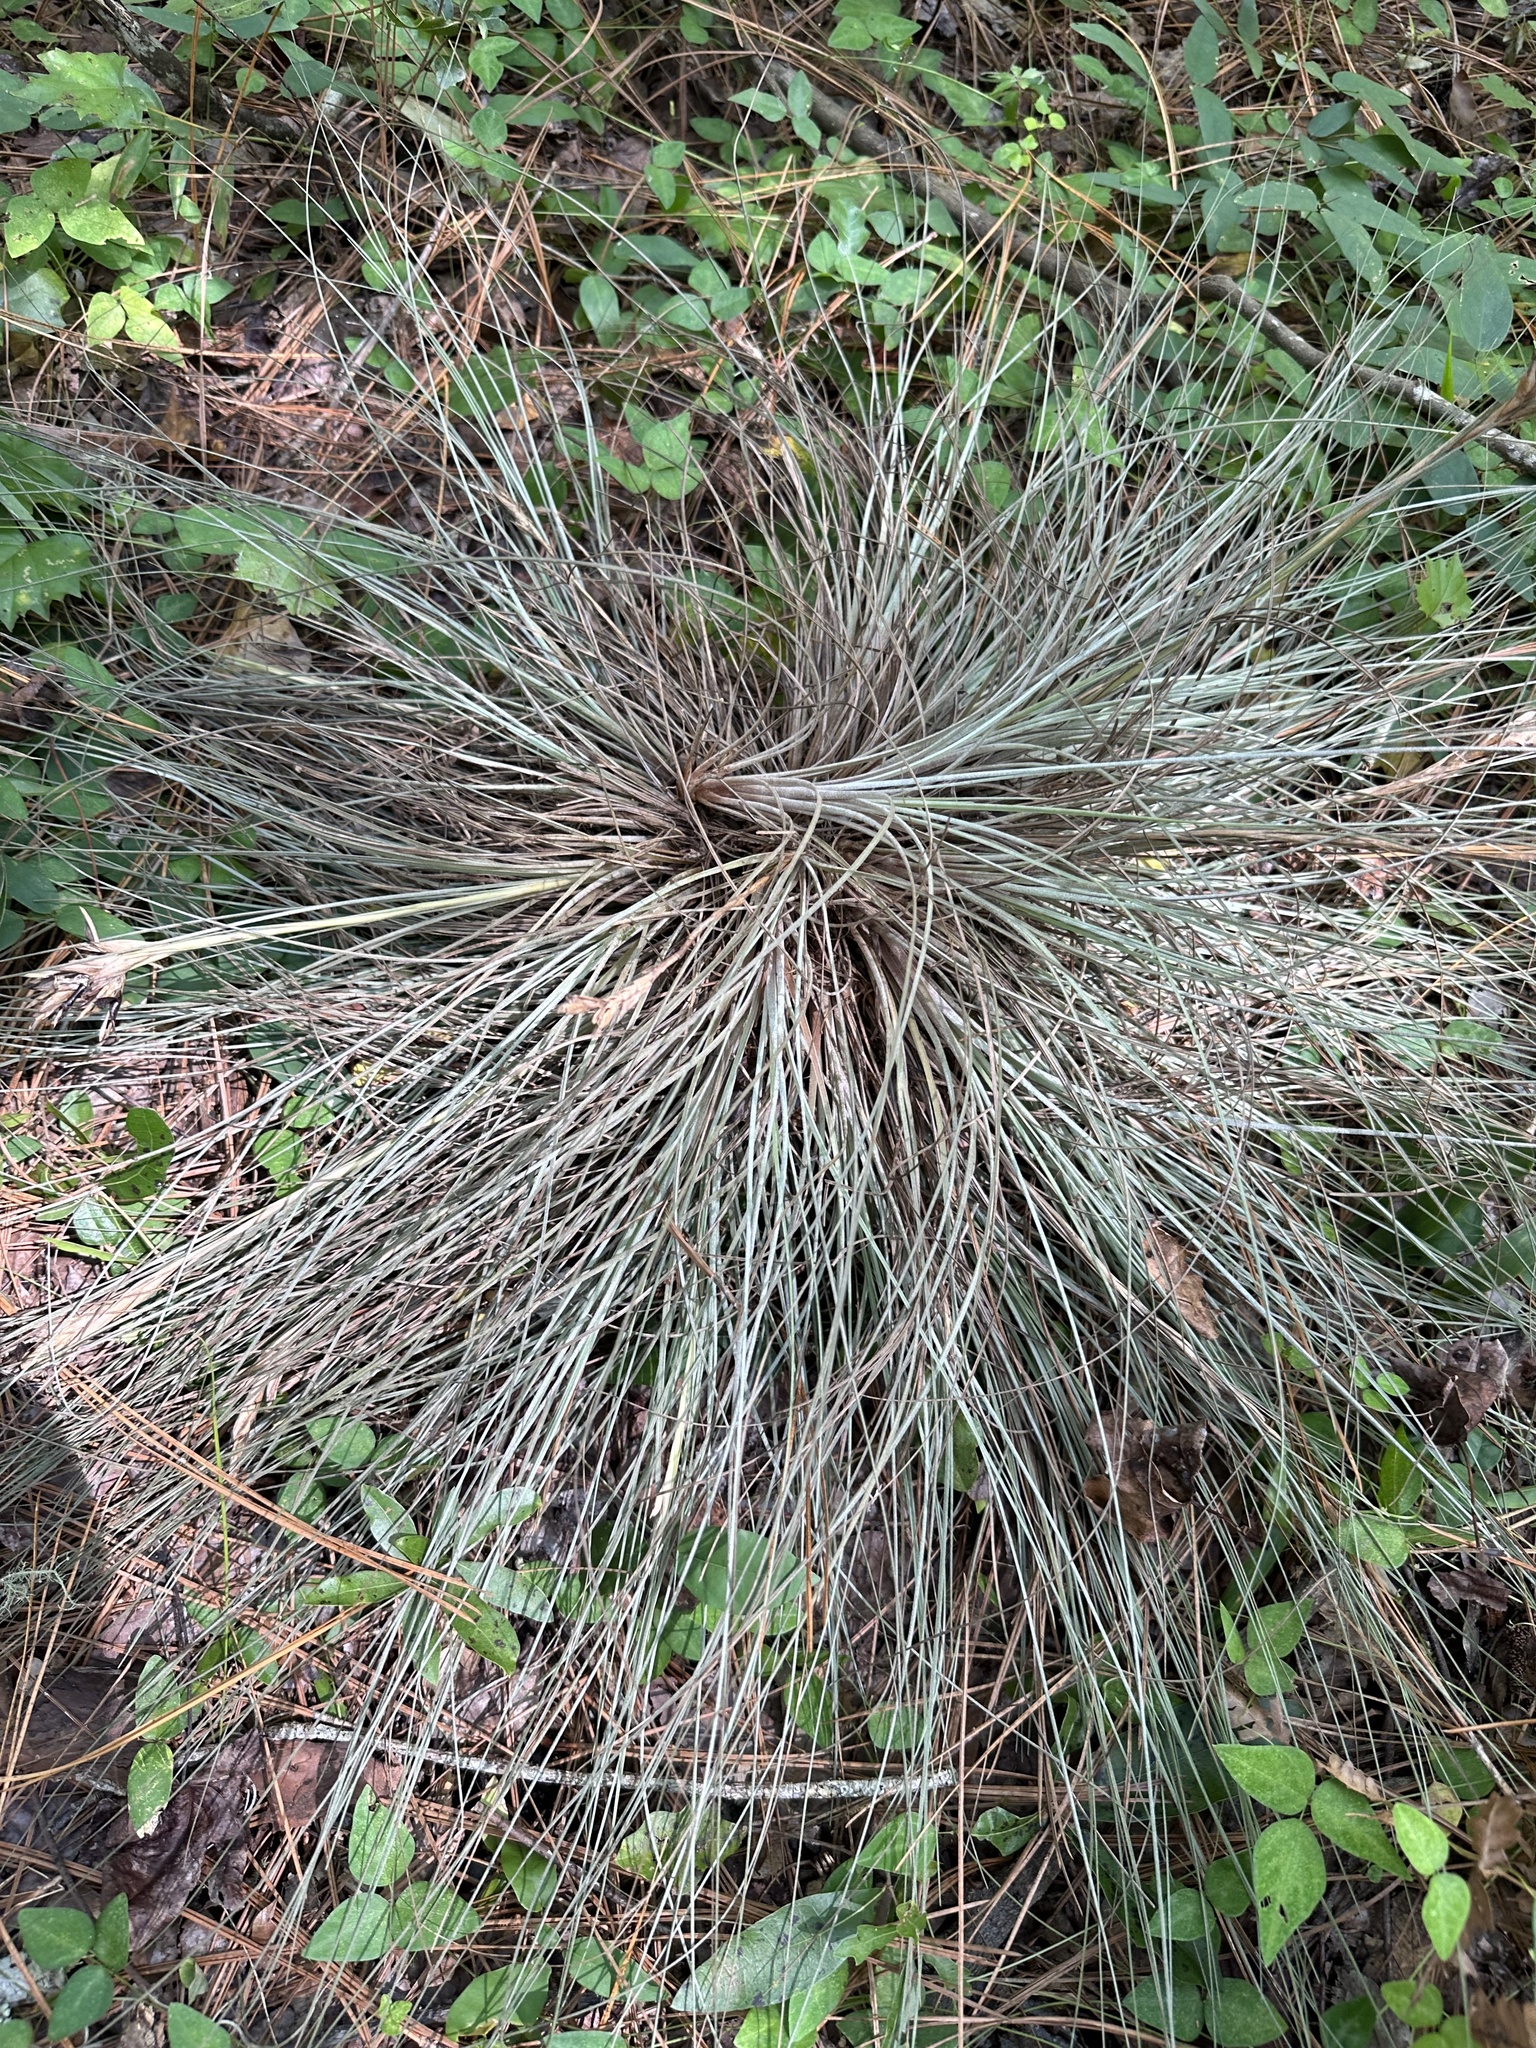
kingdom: Plantae
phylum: Tracheophyta
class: Liliopsida
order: Poales
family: Bromeliaceae
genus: Tillandsia
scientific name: Tillandsia bartramii
